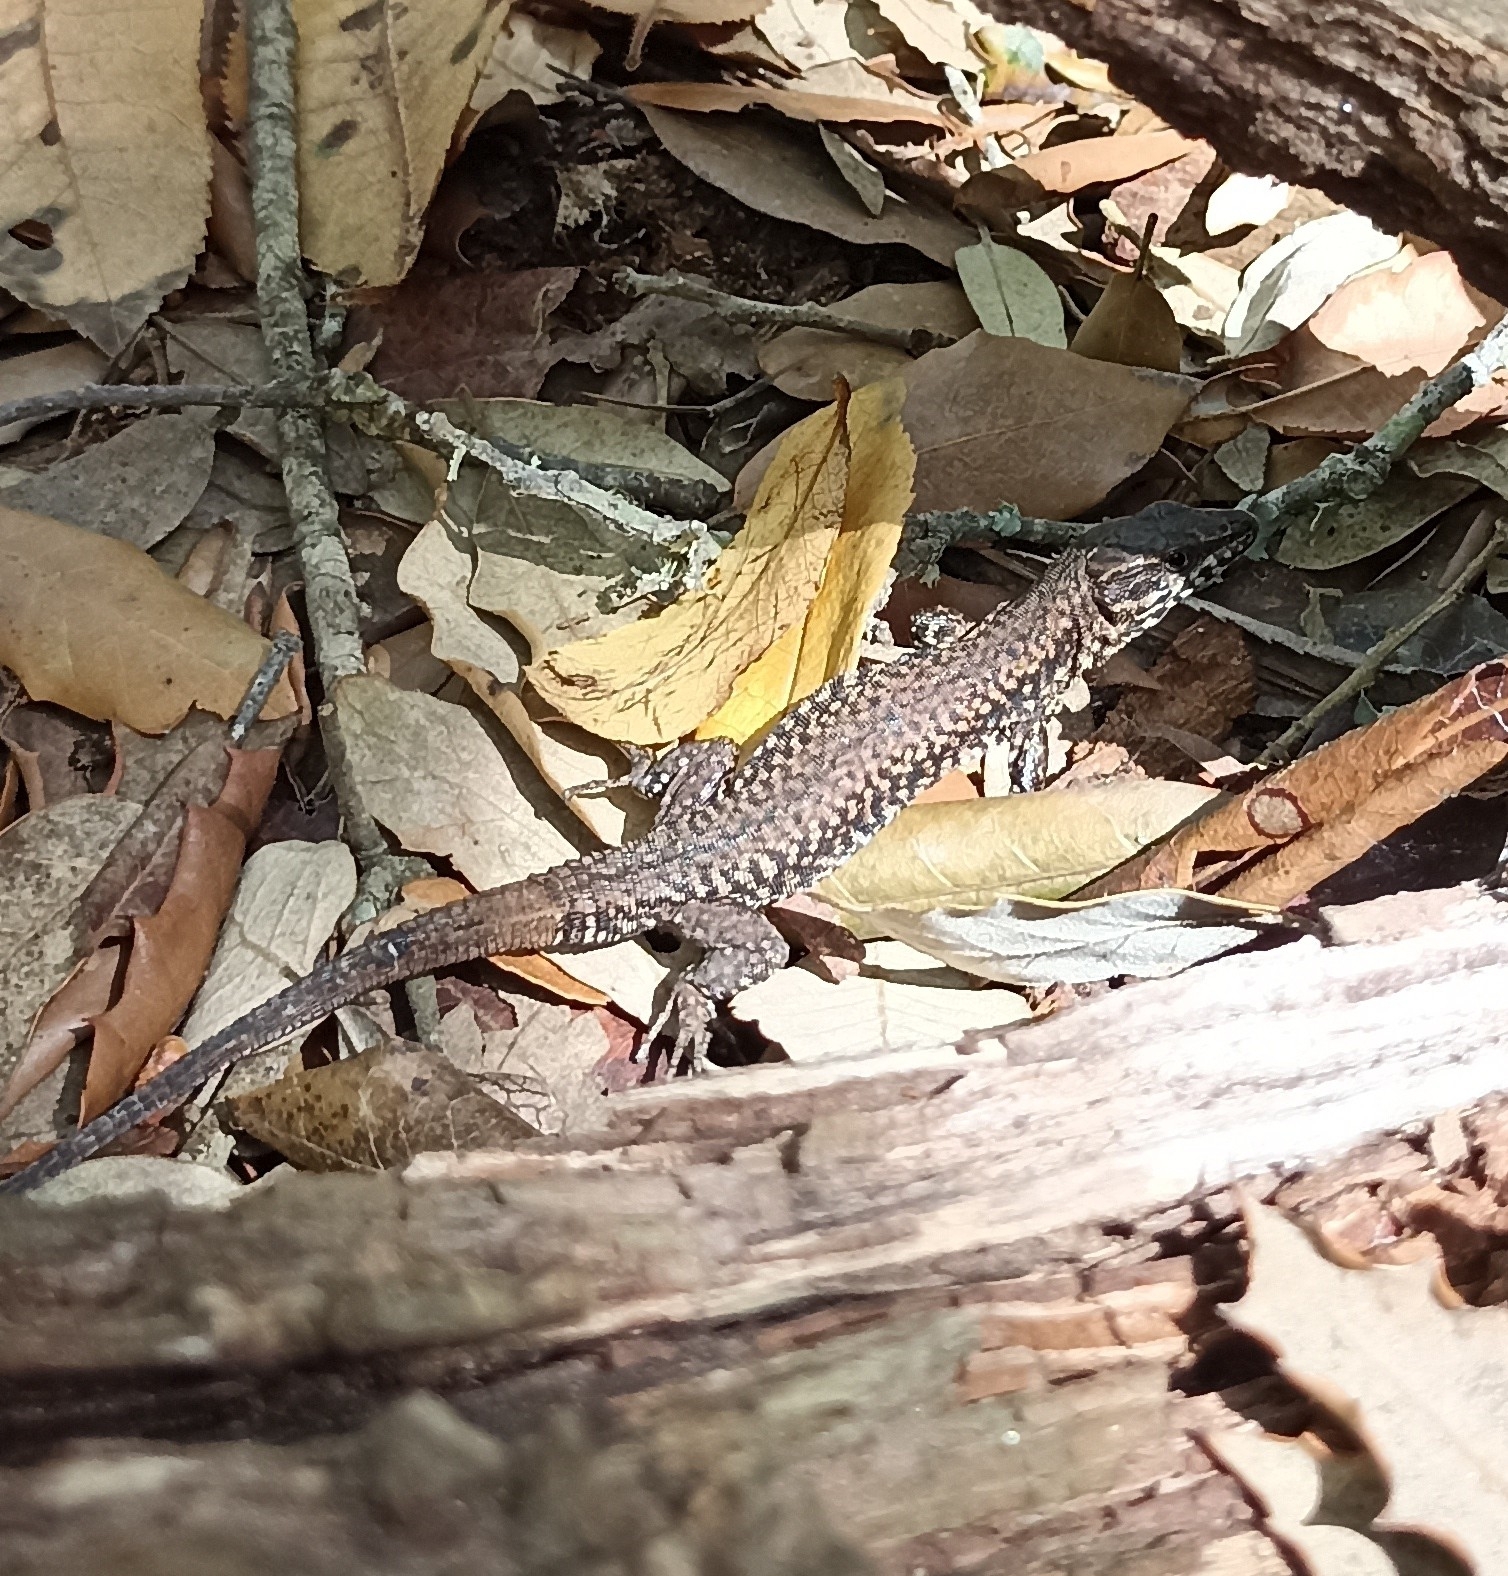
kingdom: Animalia
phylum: Chordata
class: Squamata
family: Lacertidae
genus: Podarcis
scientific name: Podarcis muralis
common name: Common wall lizard
